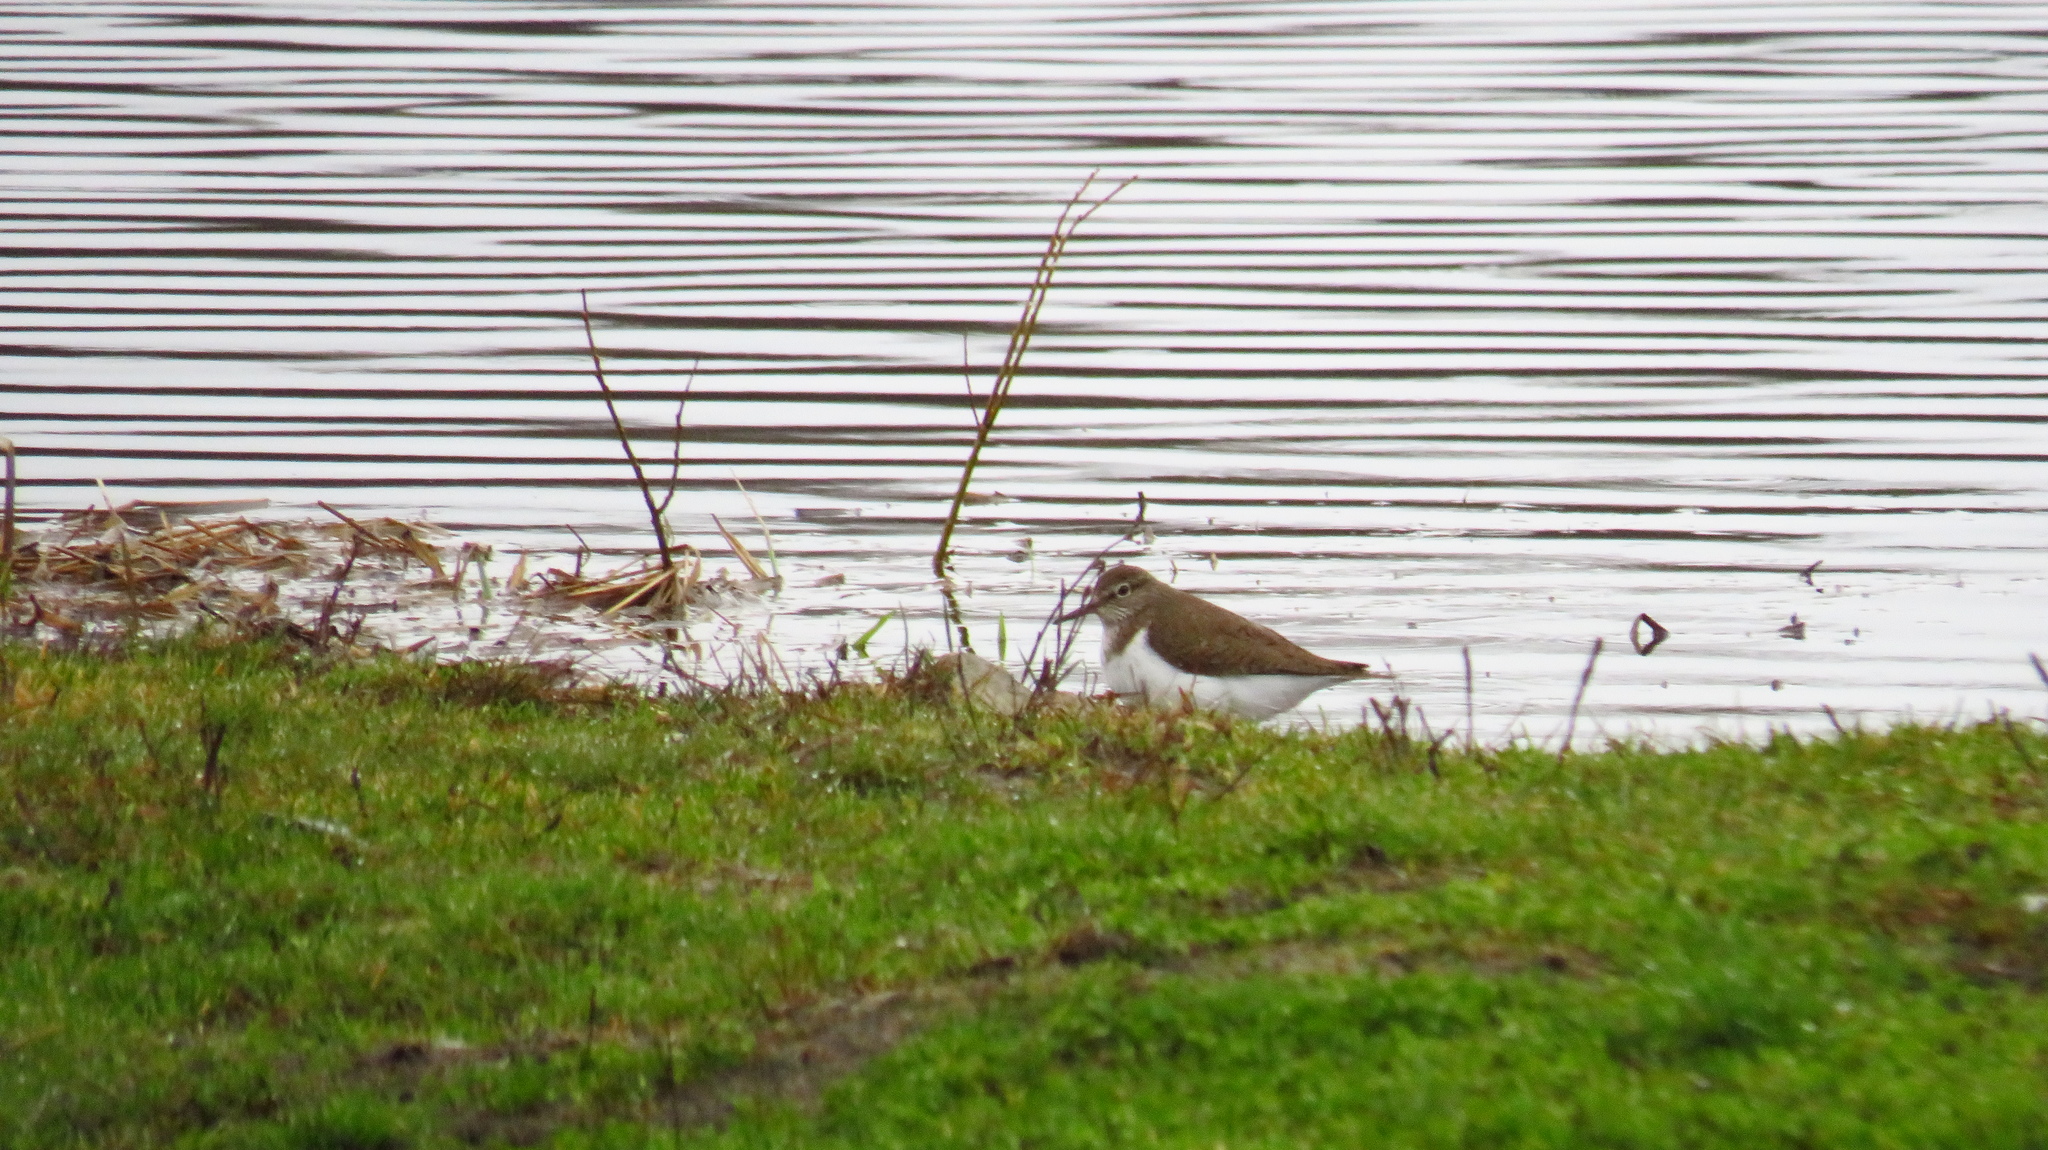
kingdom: Animalia
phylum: Chordata
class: Aves
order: Charadriiformes
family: Scolopacidae
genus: Actitis
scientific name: Actitis hypoleucos
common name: Common sandpiper
